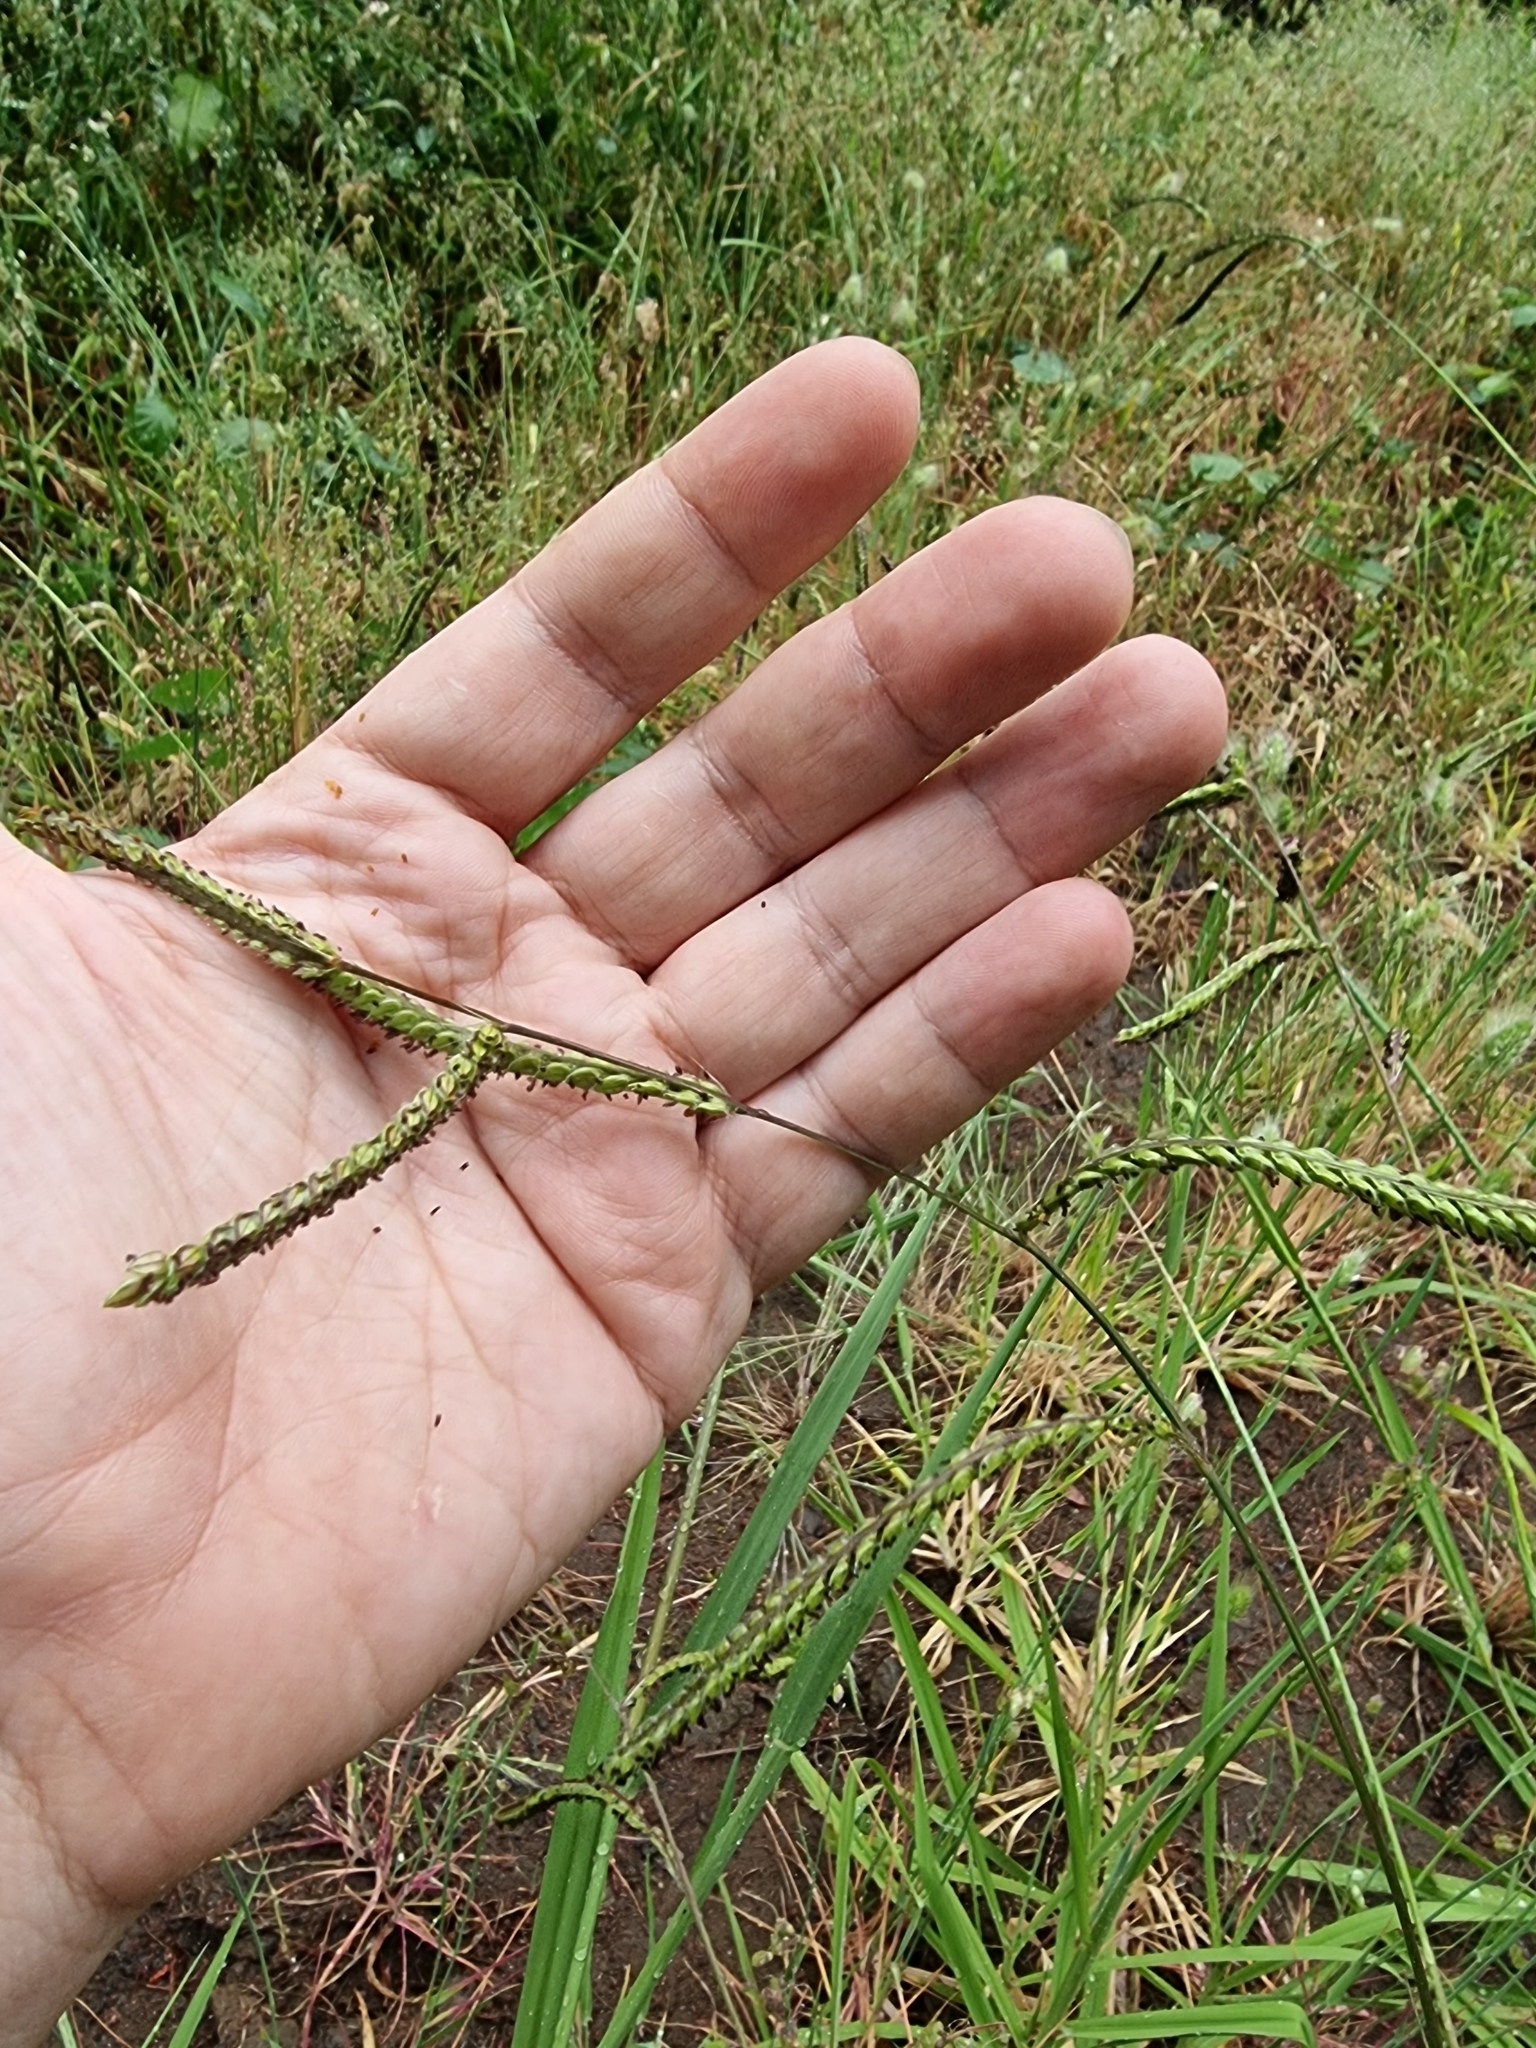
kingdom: Plantae
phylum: Tracheophyta
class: Liliopsida
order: Poales
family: Poaceae
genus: Paspalum
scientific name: Paspalum dilatatum
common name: Dallisgrass
